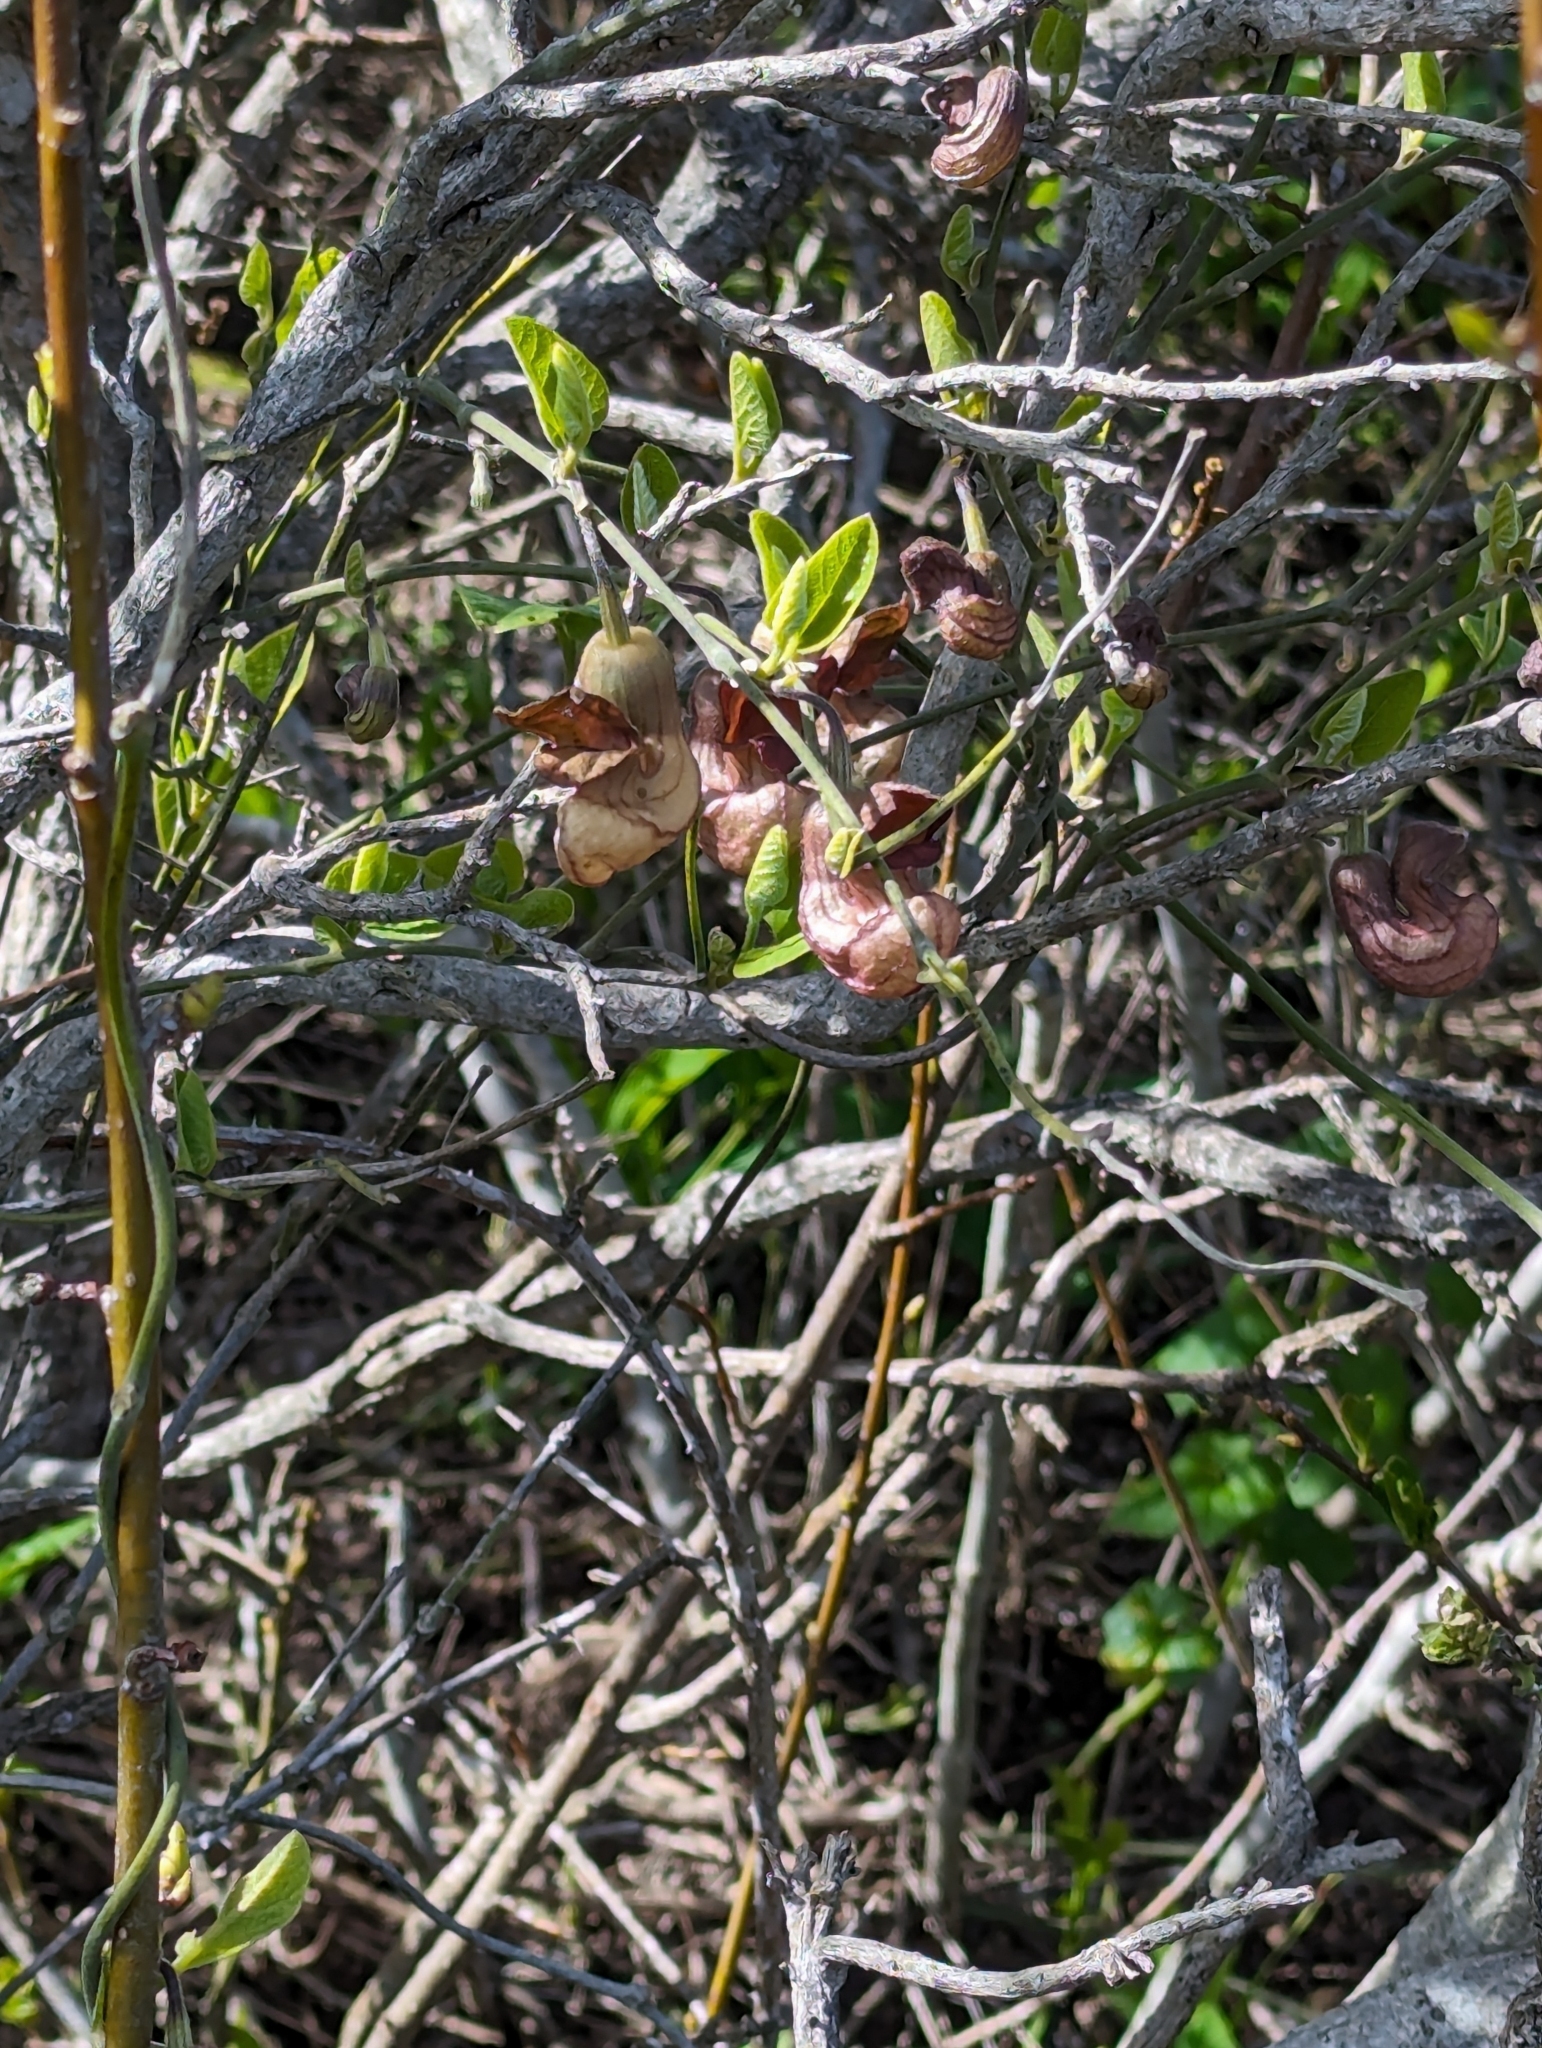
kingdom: Plantae
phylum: Tracheophyta
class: Magnoliopsida
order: Piperales
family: Aristolochiaceae
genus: Isotrema
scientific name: Isotrema californicum
